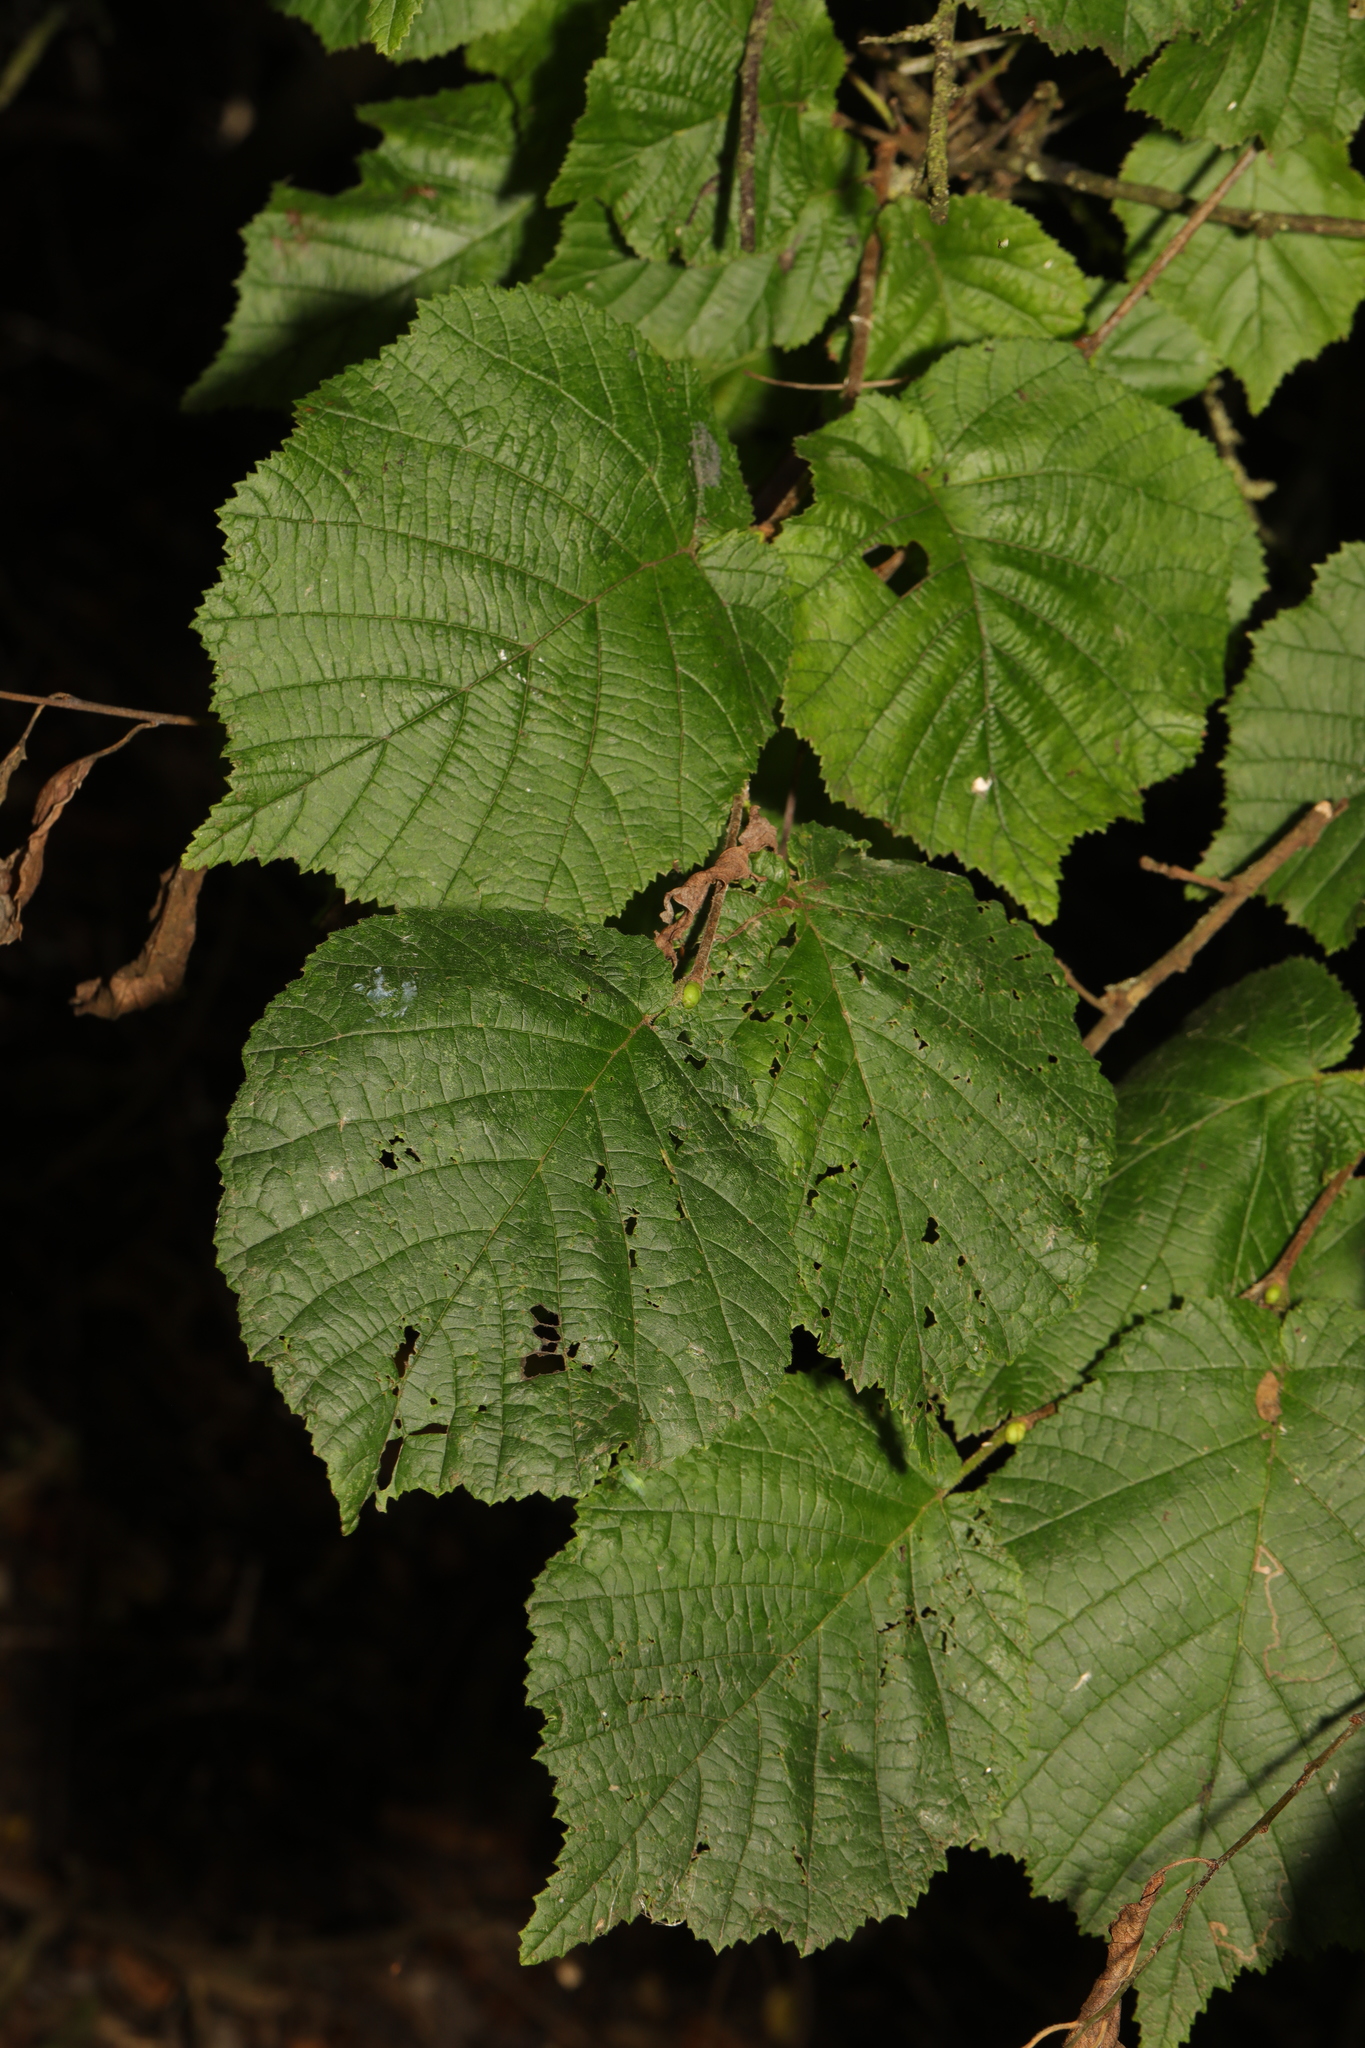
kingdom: Plantae
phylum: Tracheophyta
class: Magnoliopsida
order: Fagales
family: Betulaceae
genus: Corylus
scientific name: Corylus avellana
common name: European hazel
